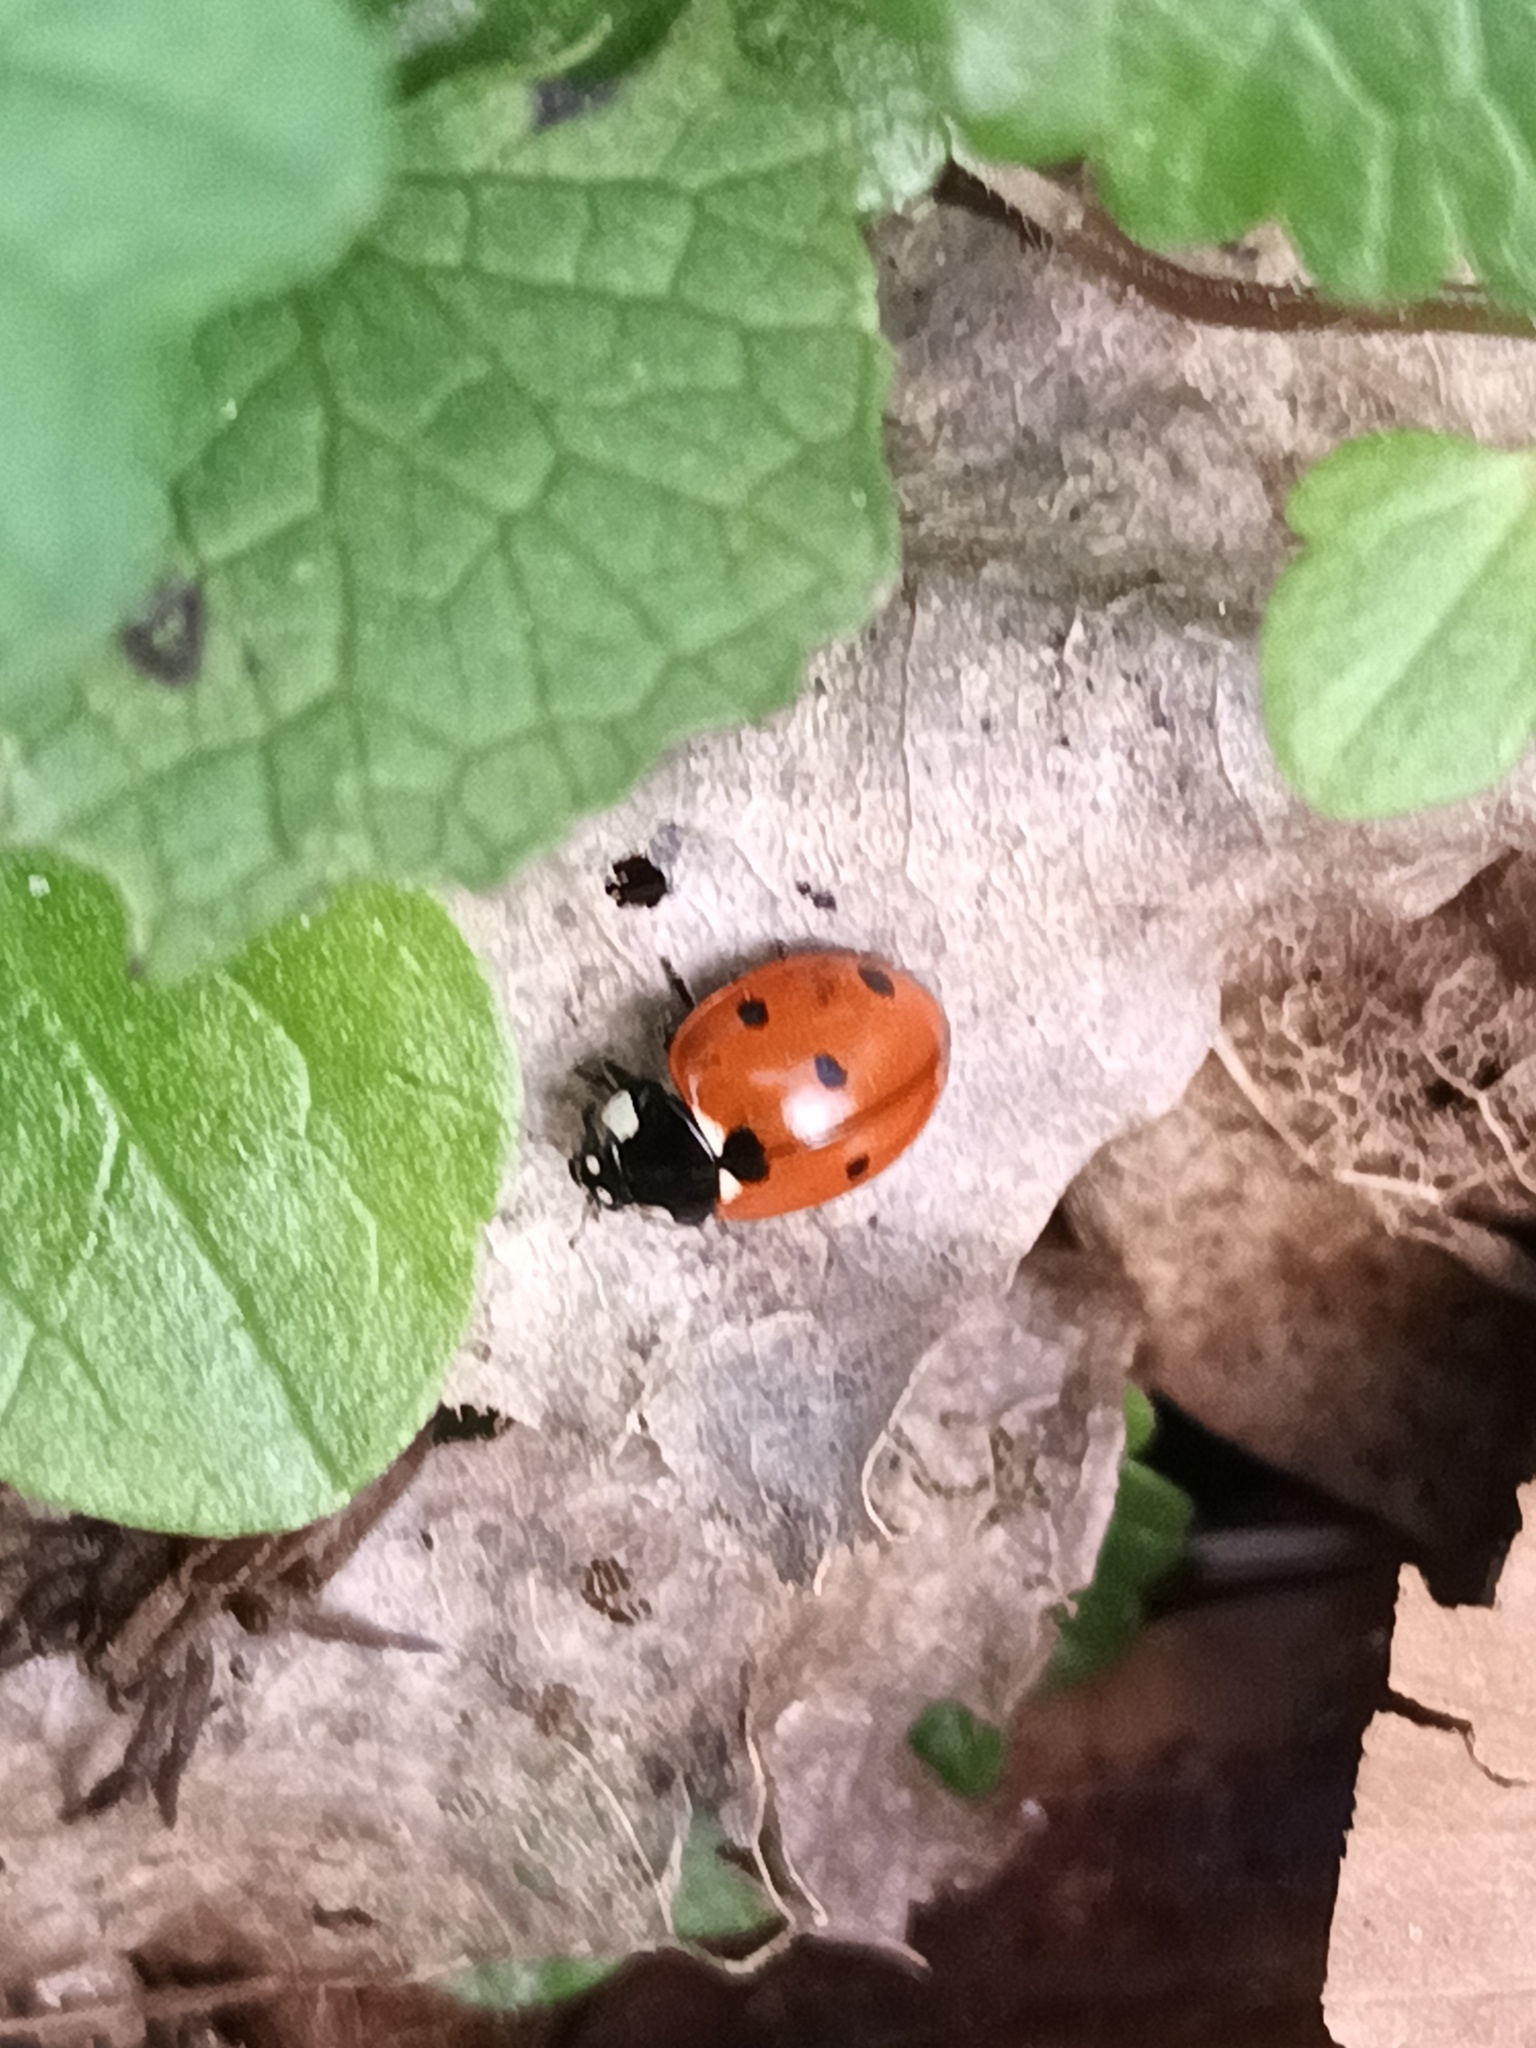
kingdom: Animalia
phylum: Arthropoda
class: Insecta
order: Coleoptera
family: Coccinellidae
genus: Coccinella
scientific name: Coccinella septempunctata
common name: Sevenspotted lady beetle
